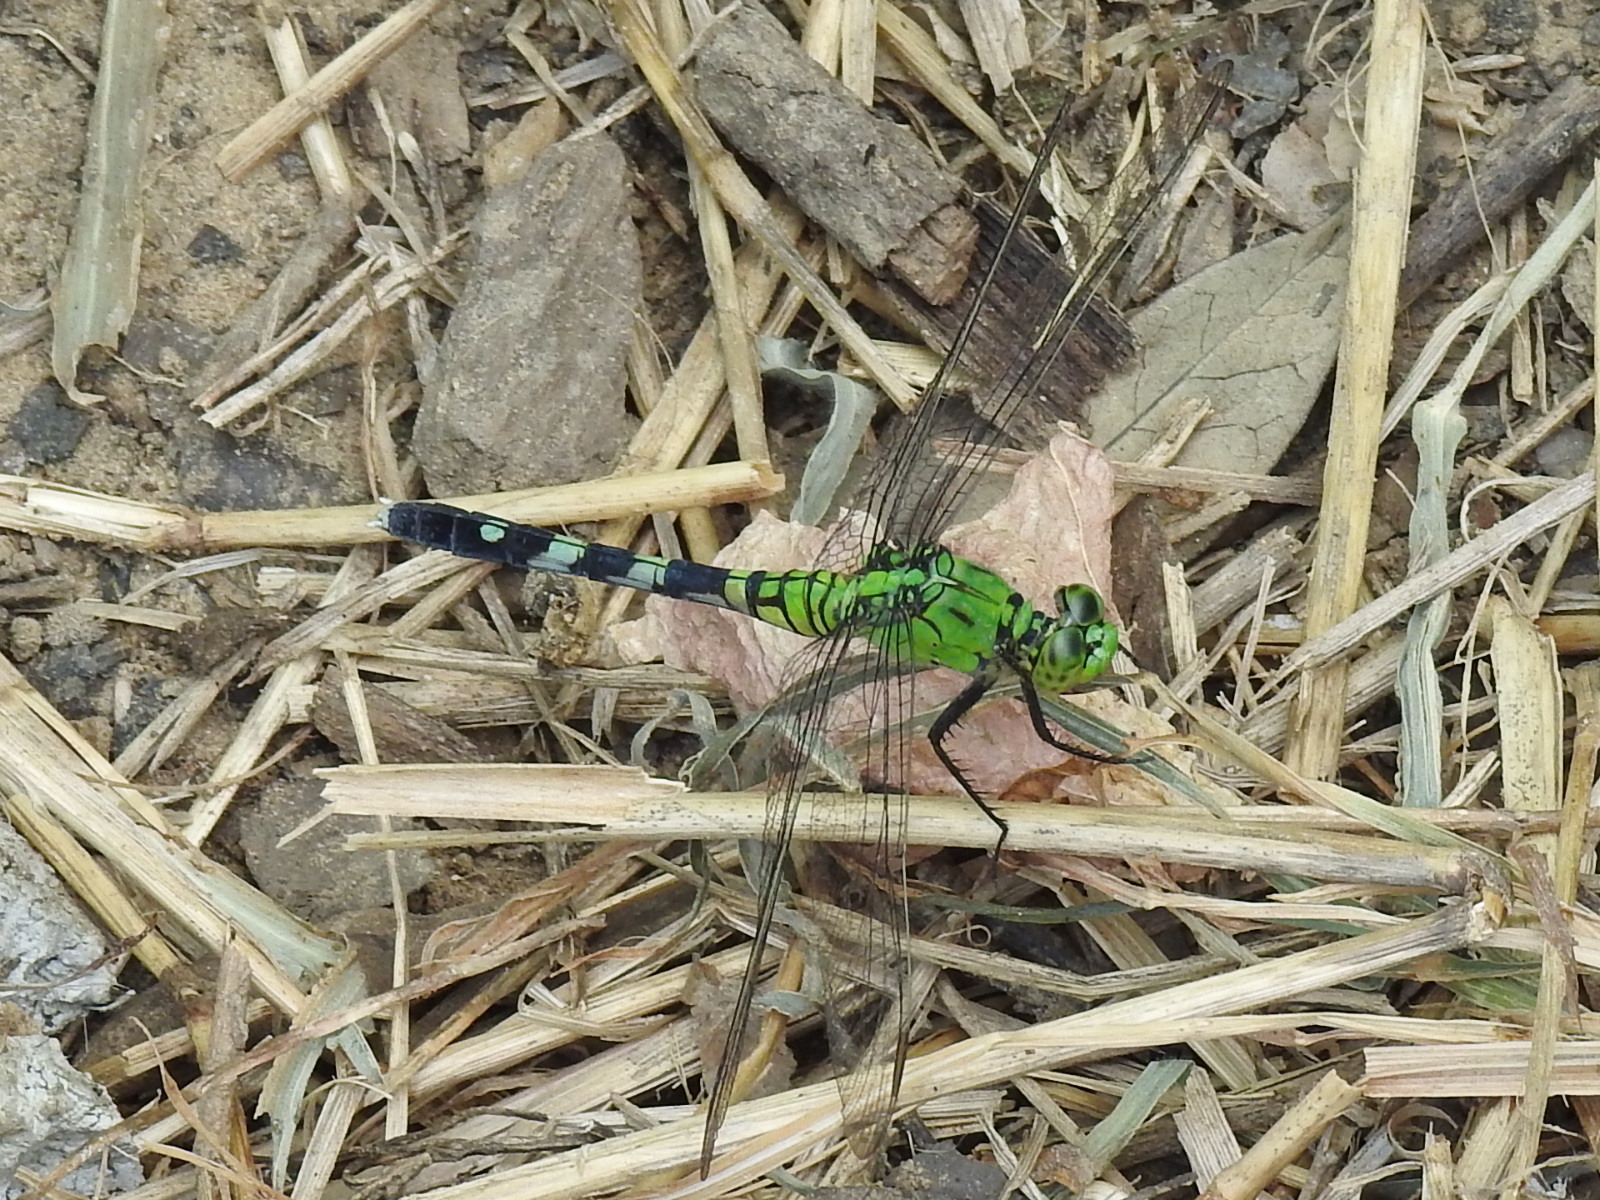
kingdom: Animalia
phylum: Arthropoda
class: Insecta
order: Odonata
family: Libellulidae
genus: Erythemis
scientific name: Erythemis simplicicollis
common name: Eastern pondhawk
